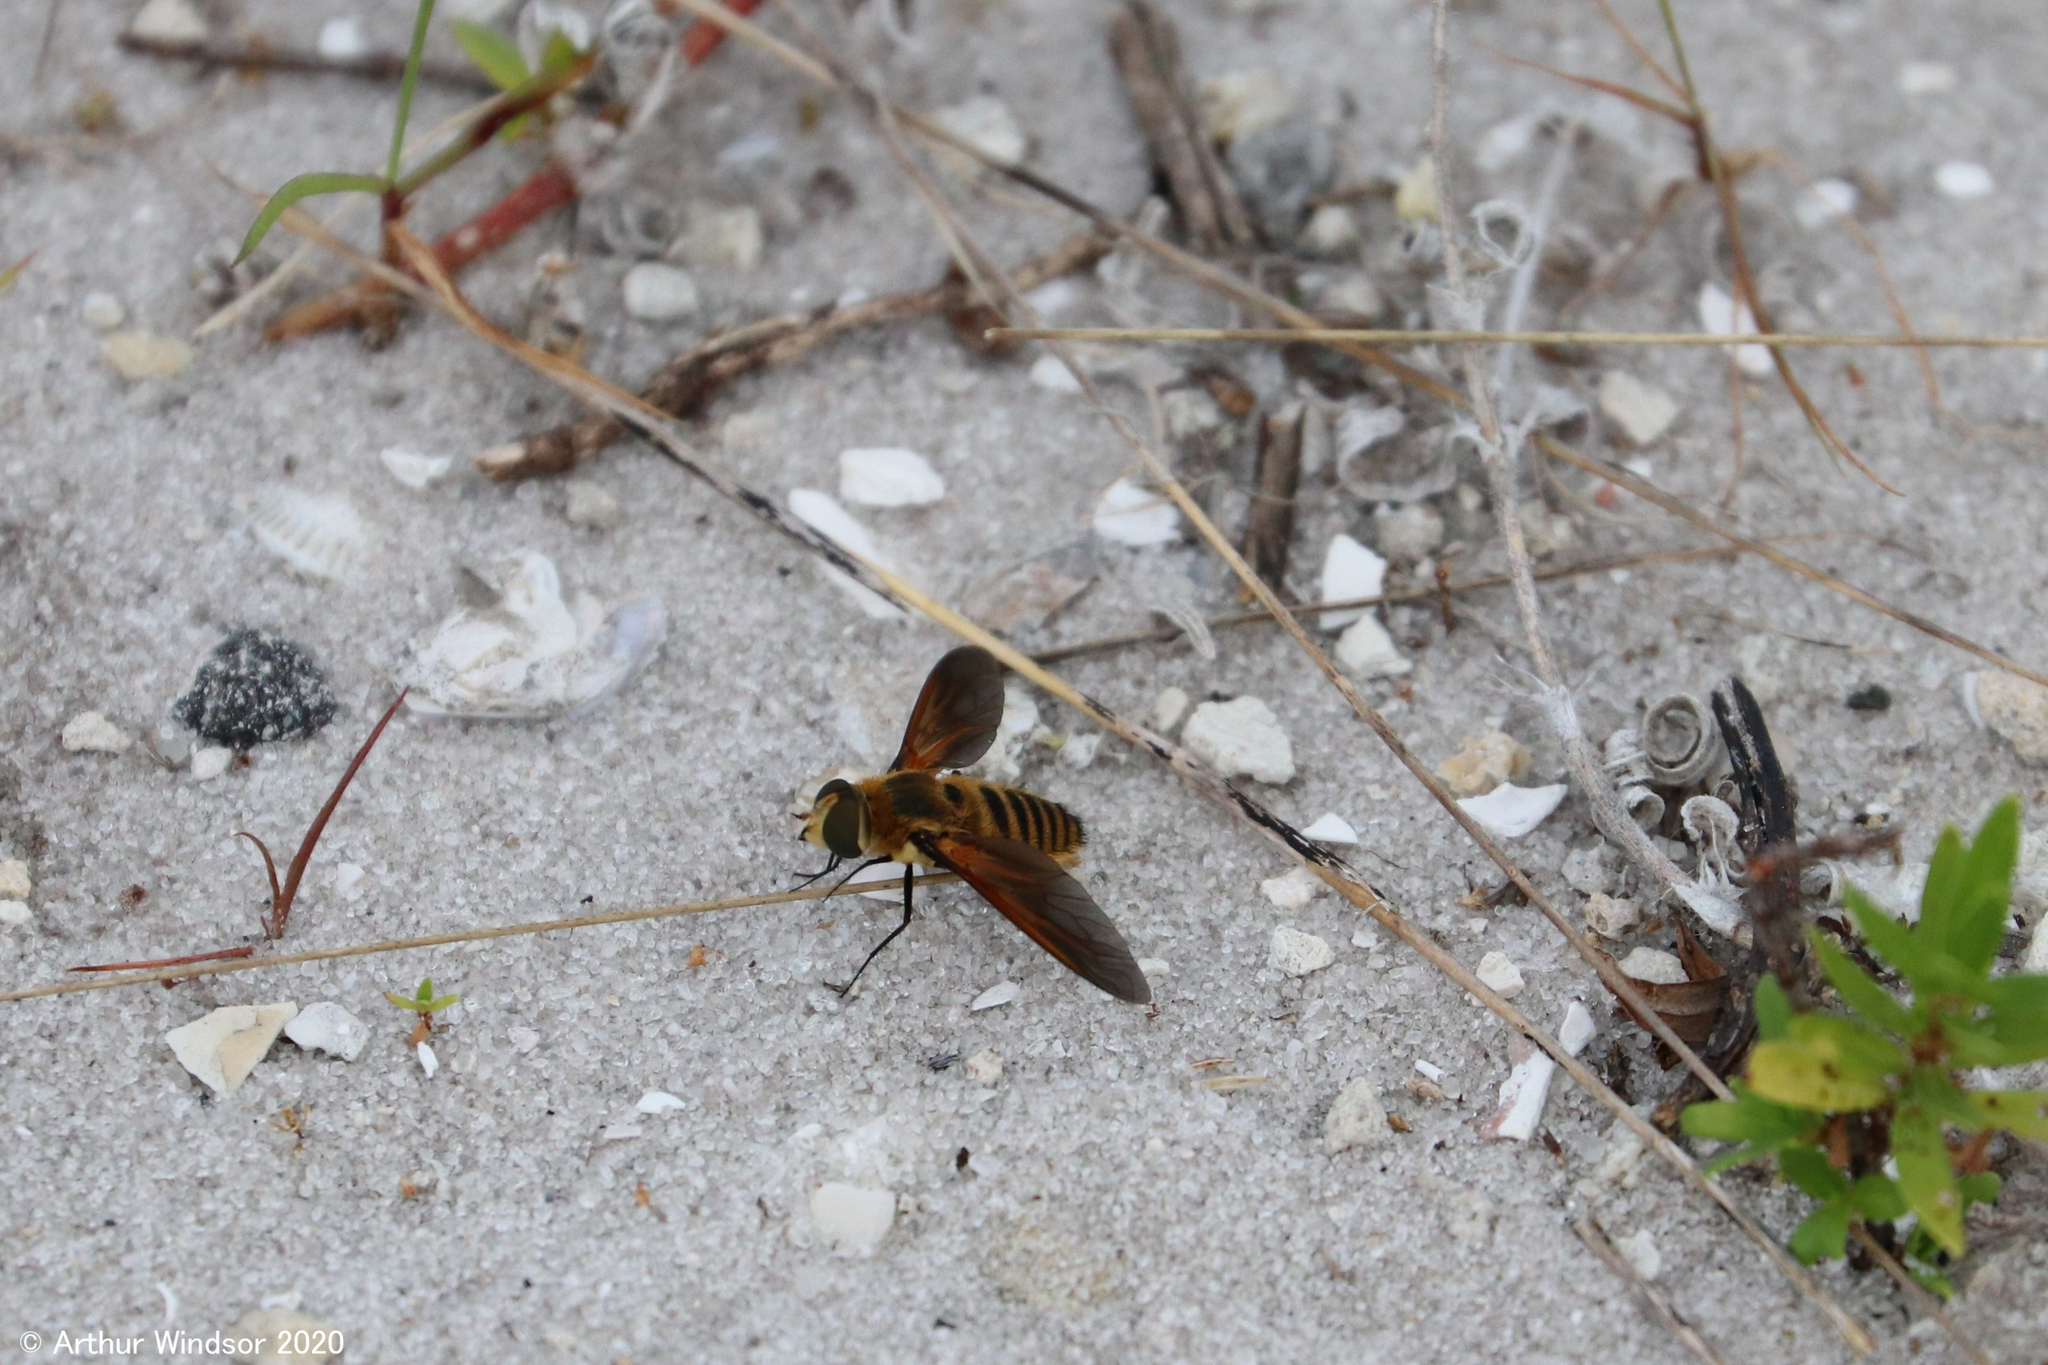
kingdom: Animalia
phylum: Arthropoda
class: Insecta
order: Diptera
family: Bombyliidae
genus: Poecilanthrax
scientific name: Poecilanthrax lucifer
